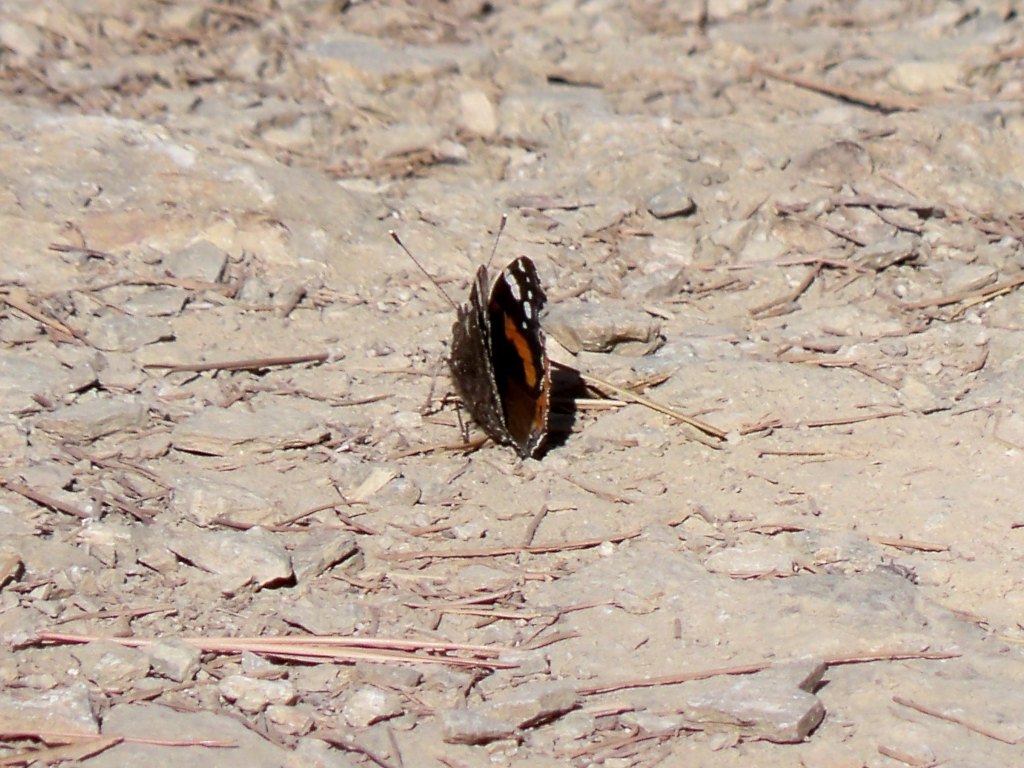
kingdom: Animalia
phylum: Arthropoda
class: Insecta
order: Lepidoptera
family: Nymphalidae
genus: Vanessa
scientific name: Vanessa atalanta
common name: Red admiral
